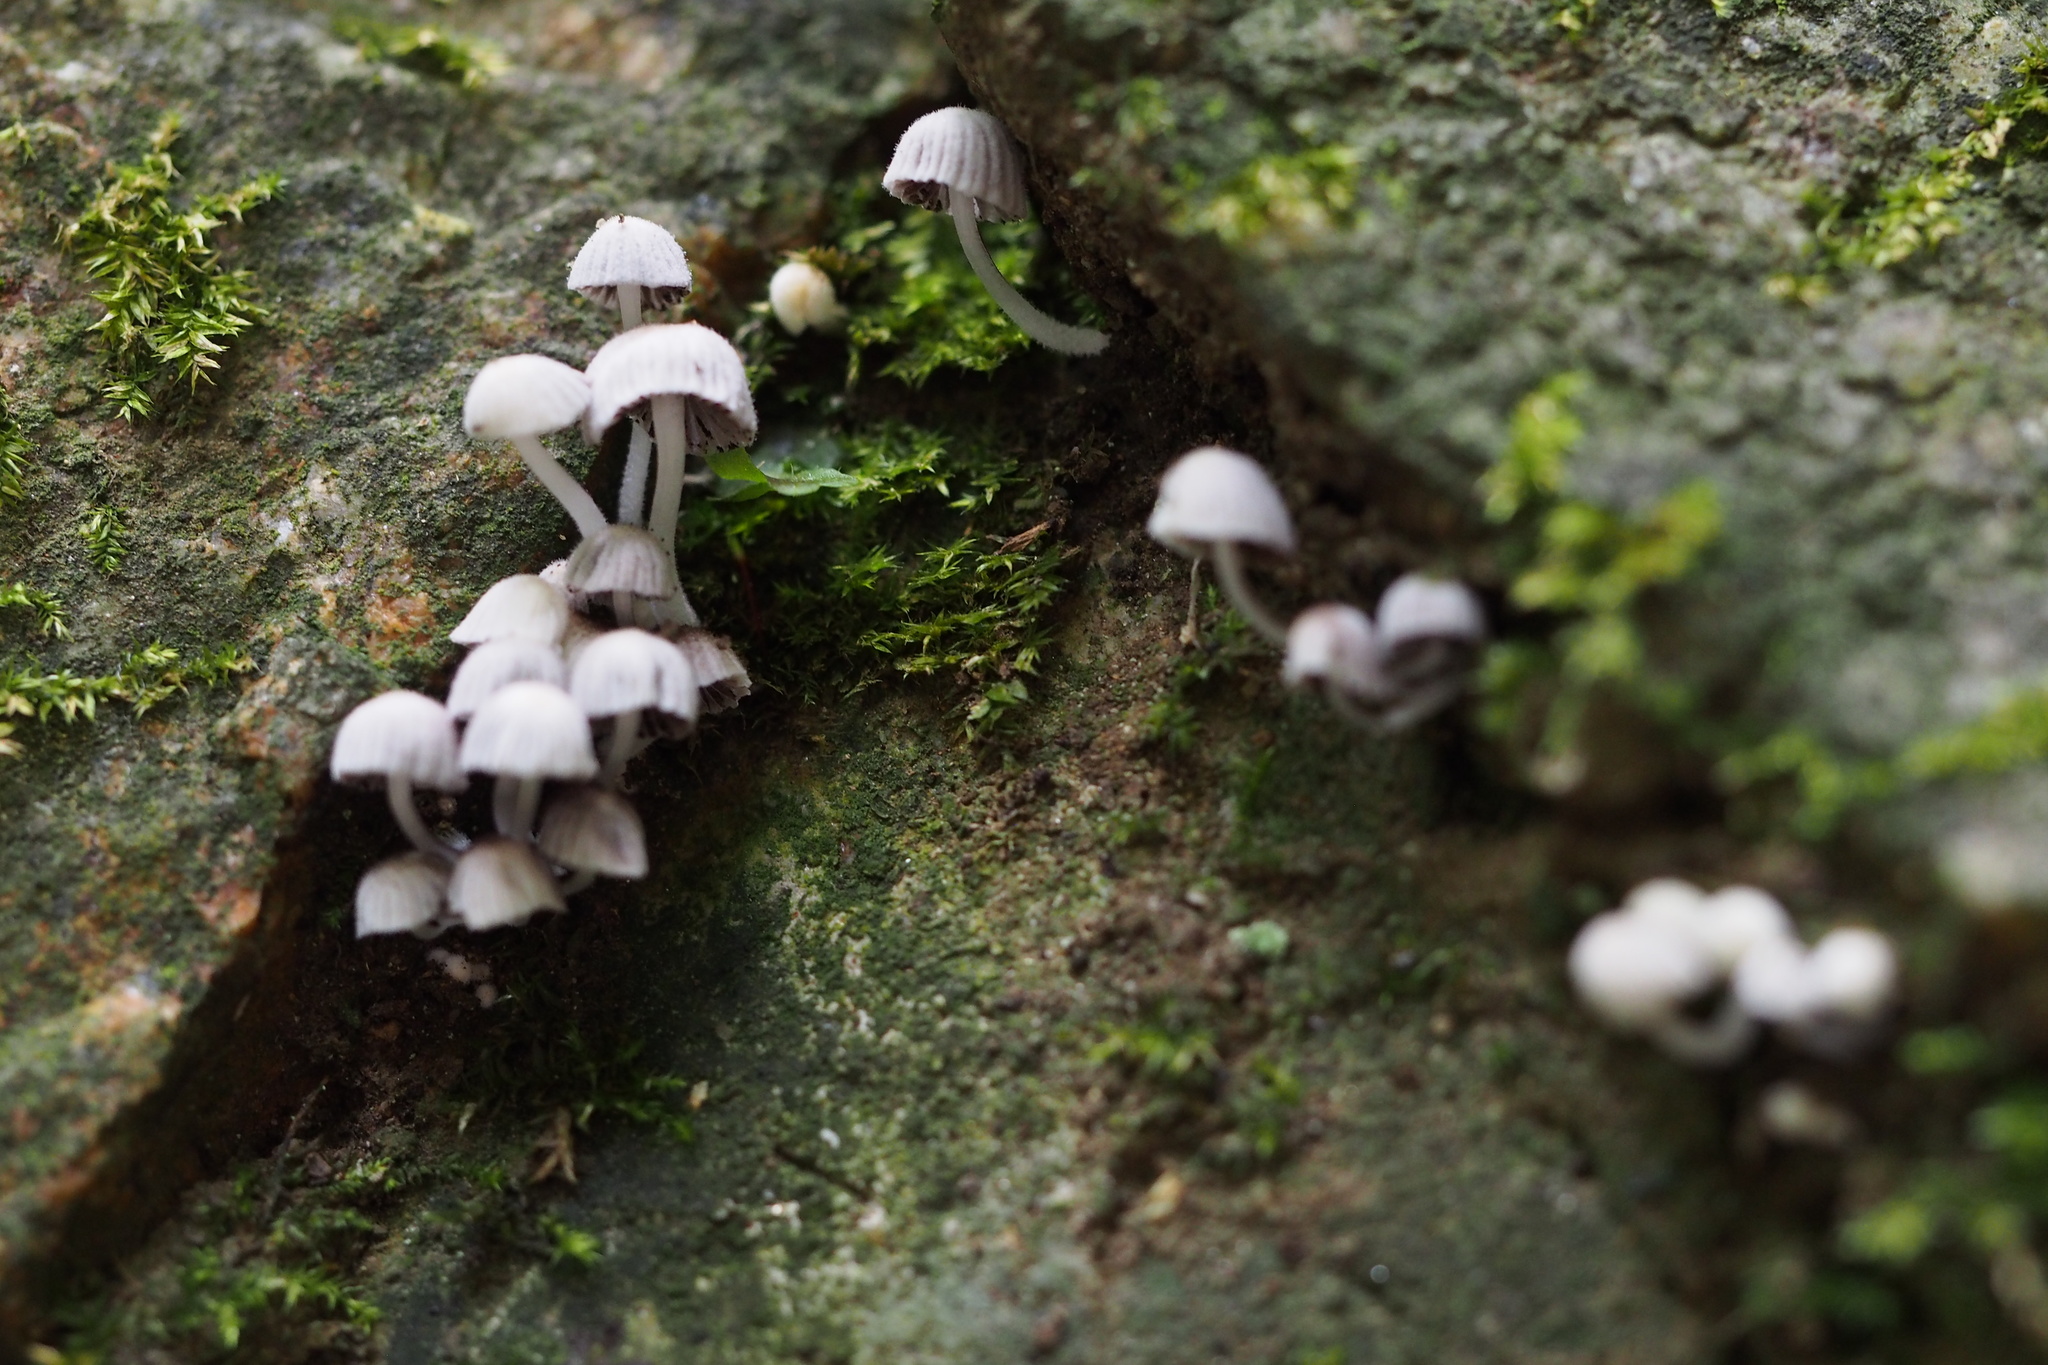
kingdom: Fungi
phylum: Basidiomycota
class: Agaricomycetes
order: Agaricales
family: Psathyrellaceae
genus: Coprinellus
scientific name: Coprinellus disseminatus
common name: Fairies' bonnets
